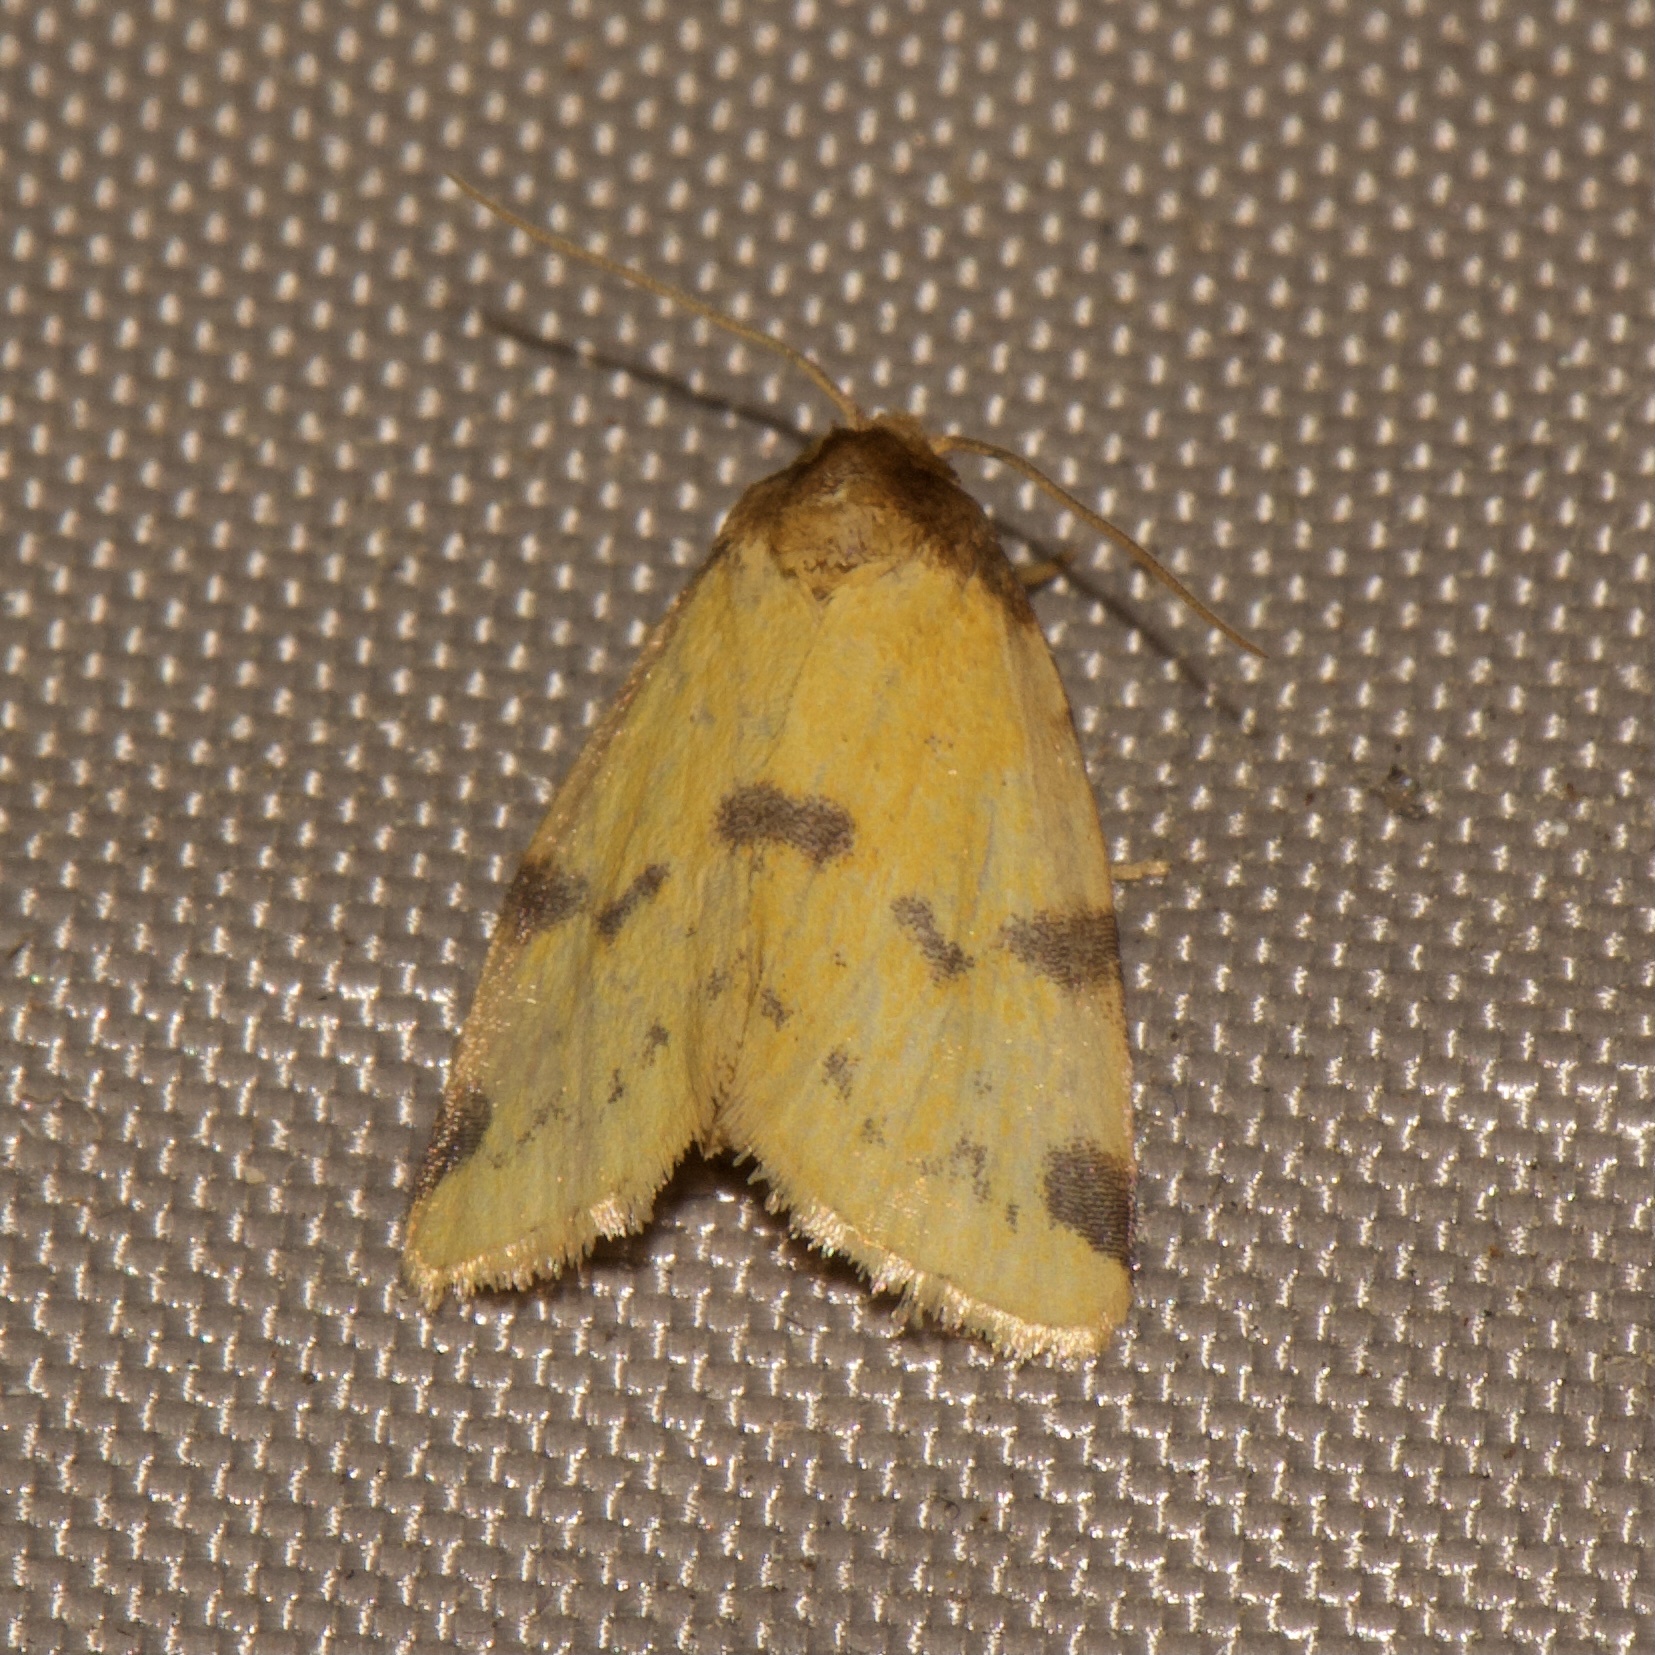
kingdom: Animalia
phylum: Arthropoda
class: Insecta
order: Lepidoptera
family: Noctuidae
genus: Azenia
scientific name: Azenia obtusa
